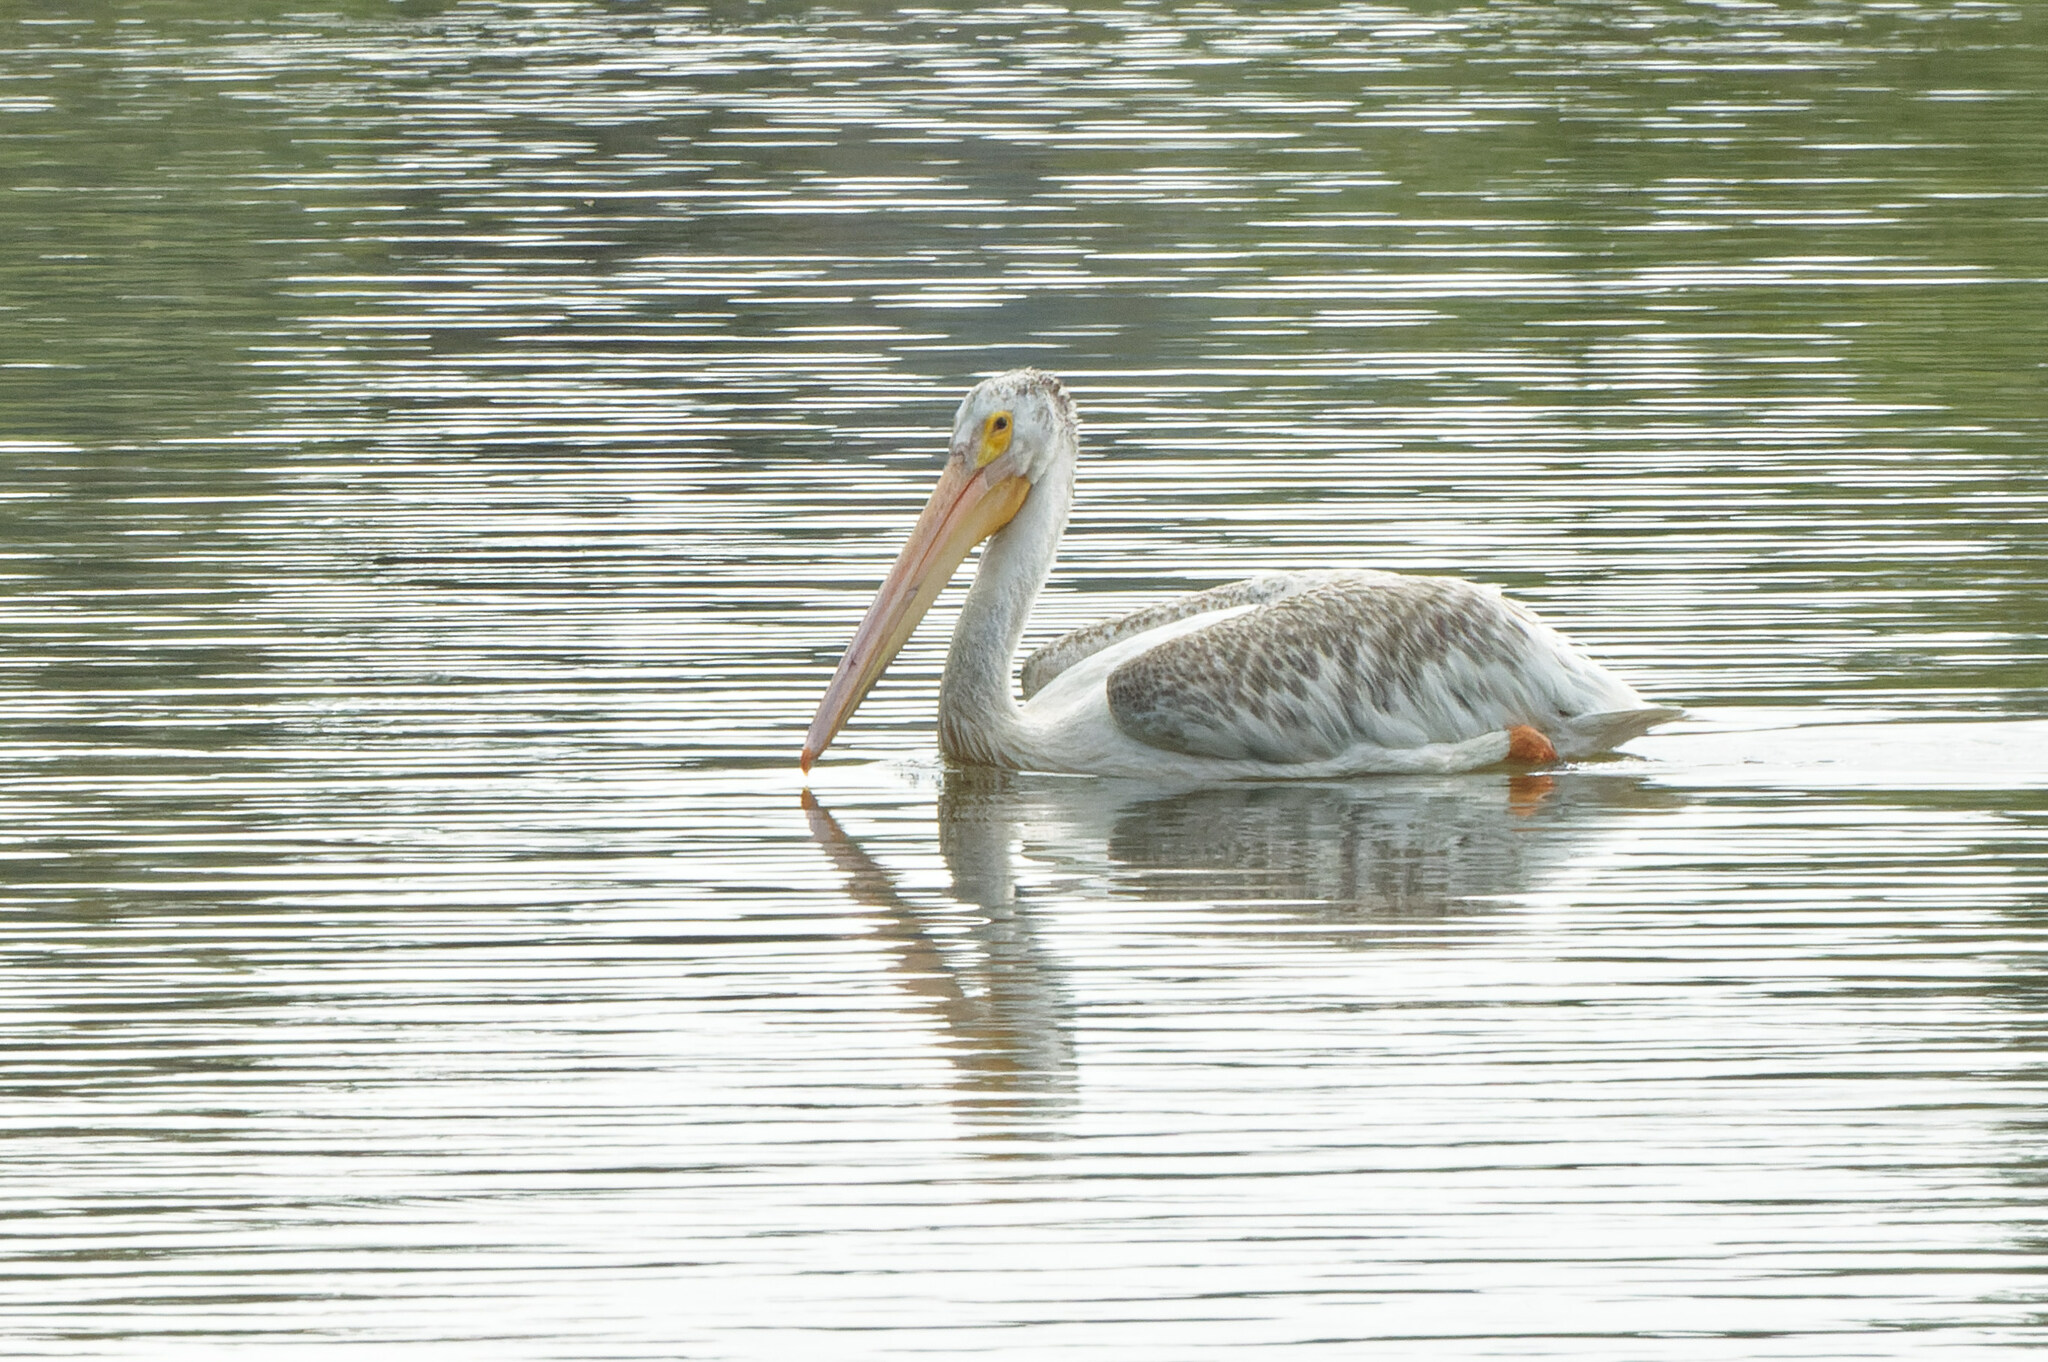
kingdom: Animalia
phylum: Chordata
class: Aves
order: Pelecaniformes
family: Pelecanidae
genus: Pelecanus
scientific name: Pelecanus erythrorhynchos
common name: American white pelican
